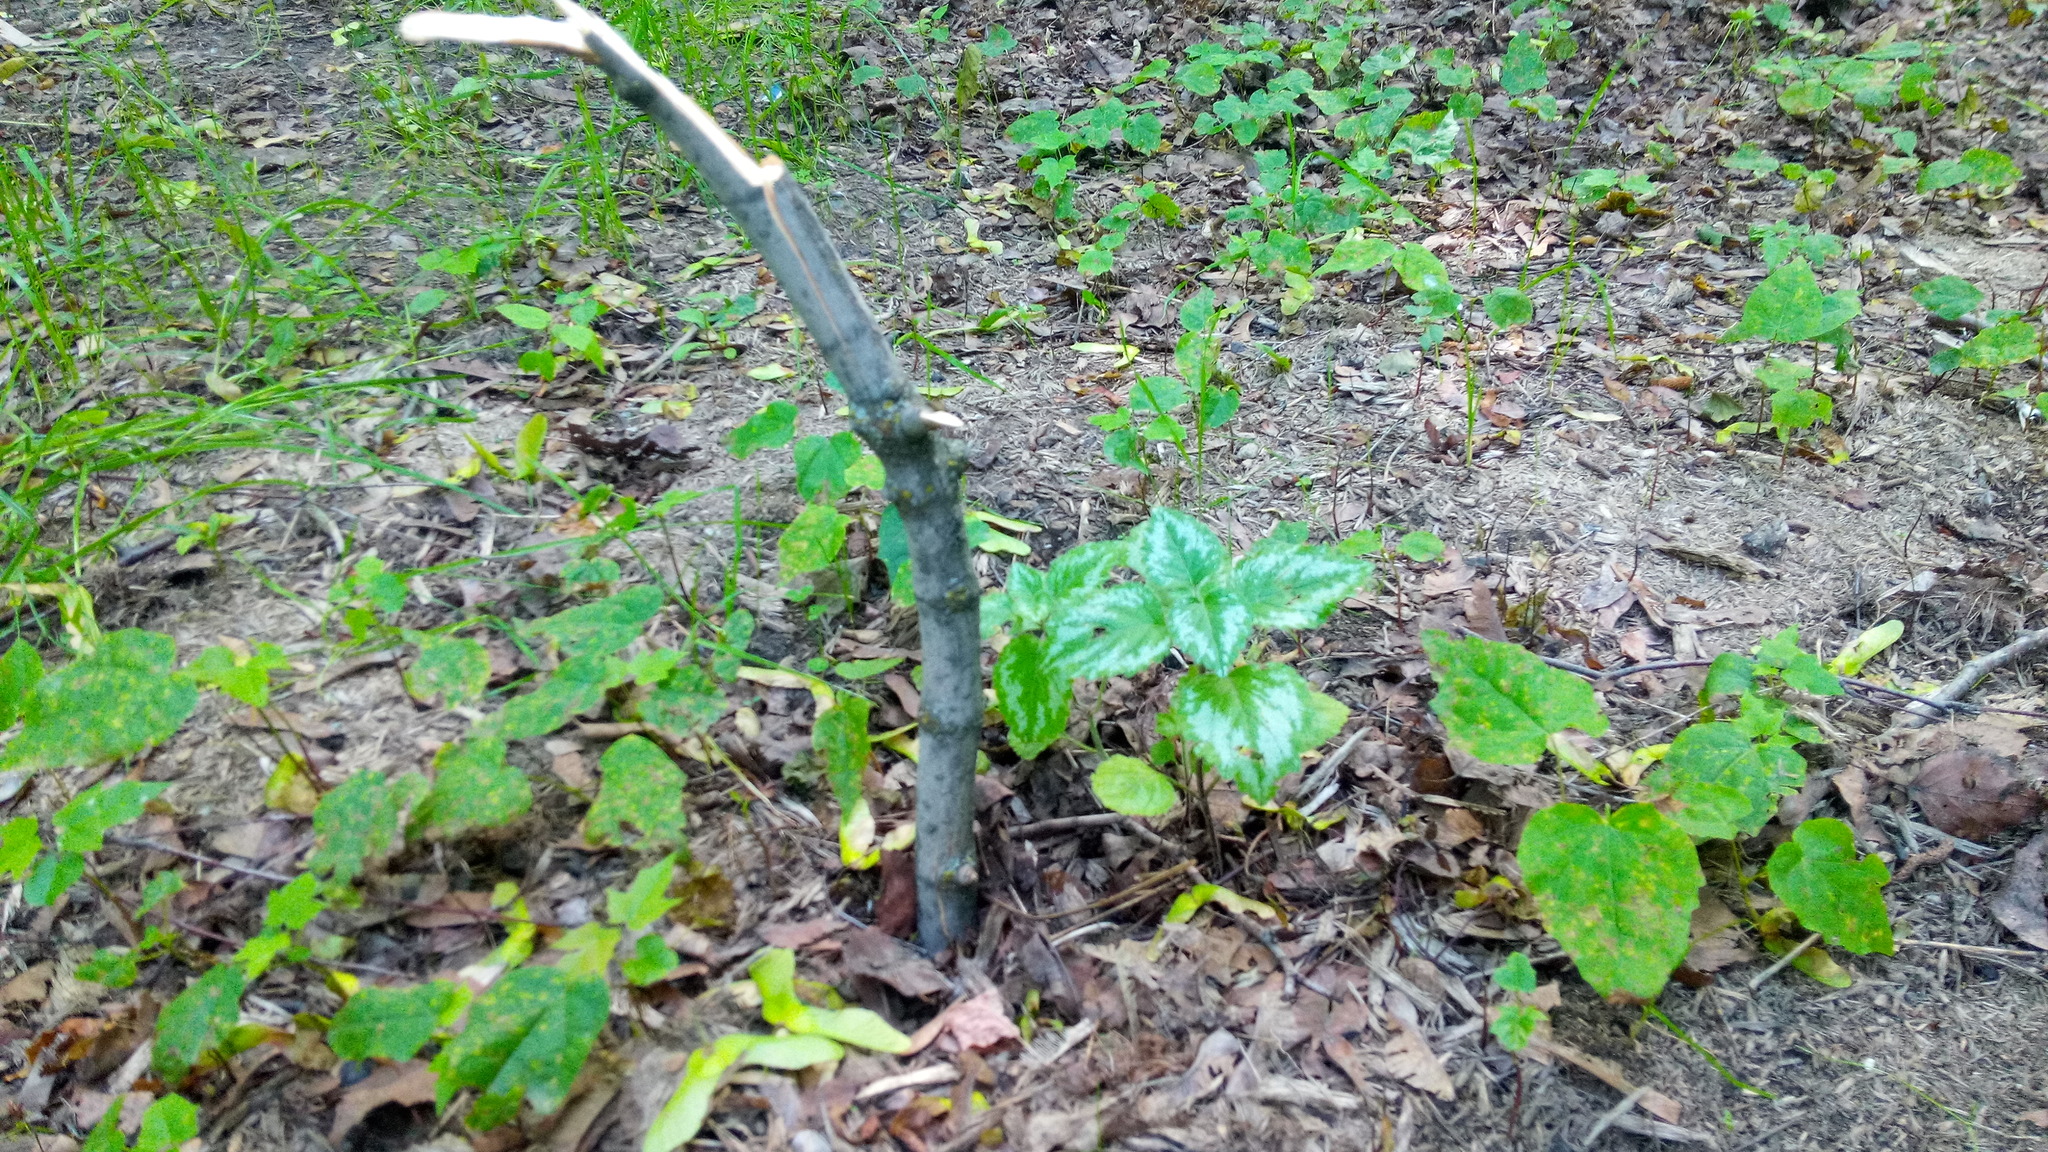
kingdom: Plantae
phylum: Tracheophyta
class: Magnoliopsida
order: Lamiales
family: Lamiaceae
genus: Lamium
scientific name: Lamium galeobdolon
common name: Yellow archangel
